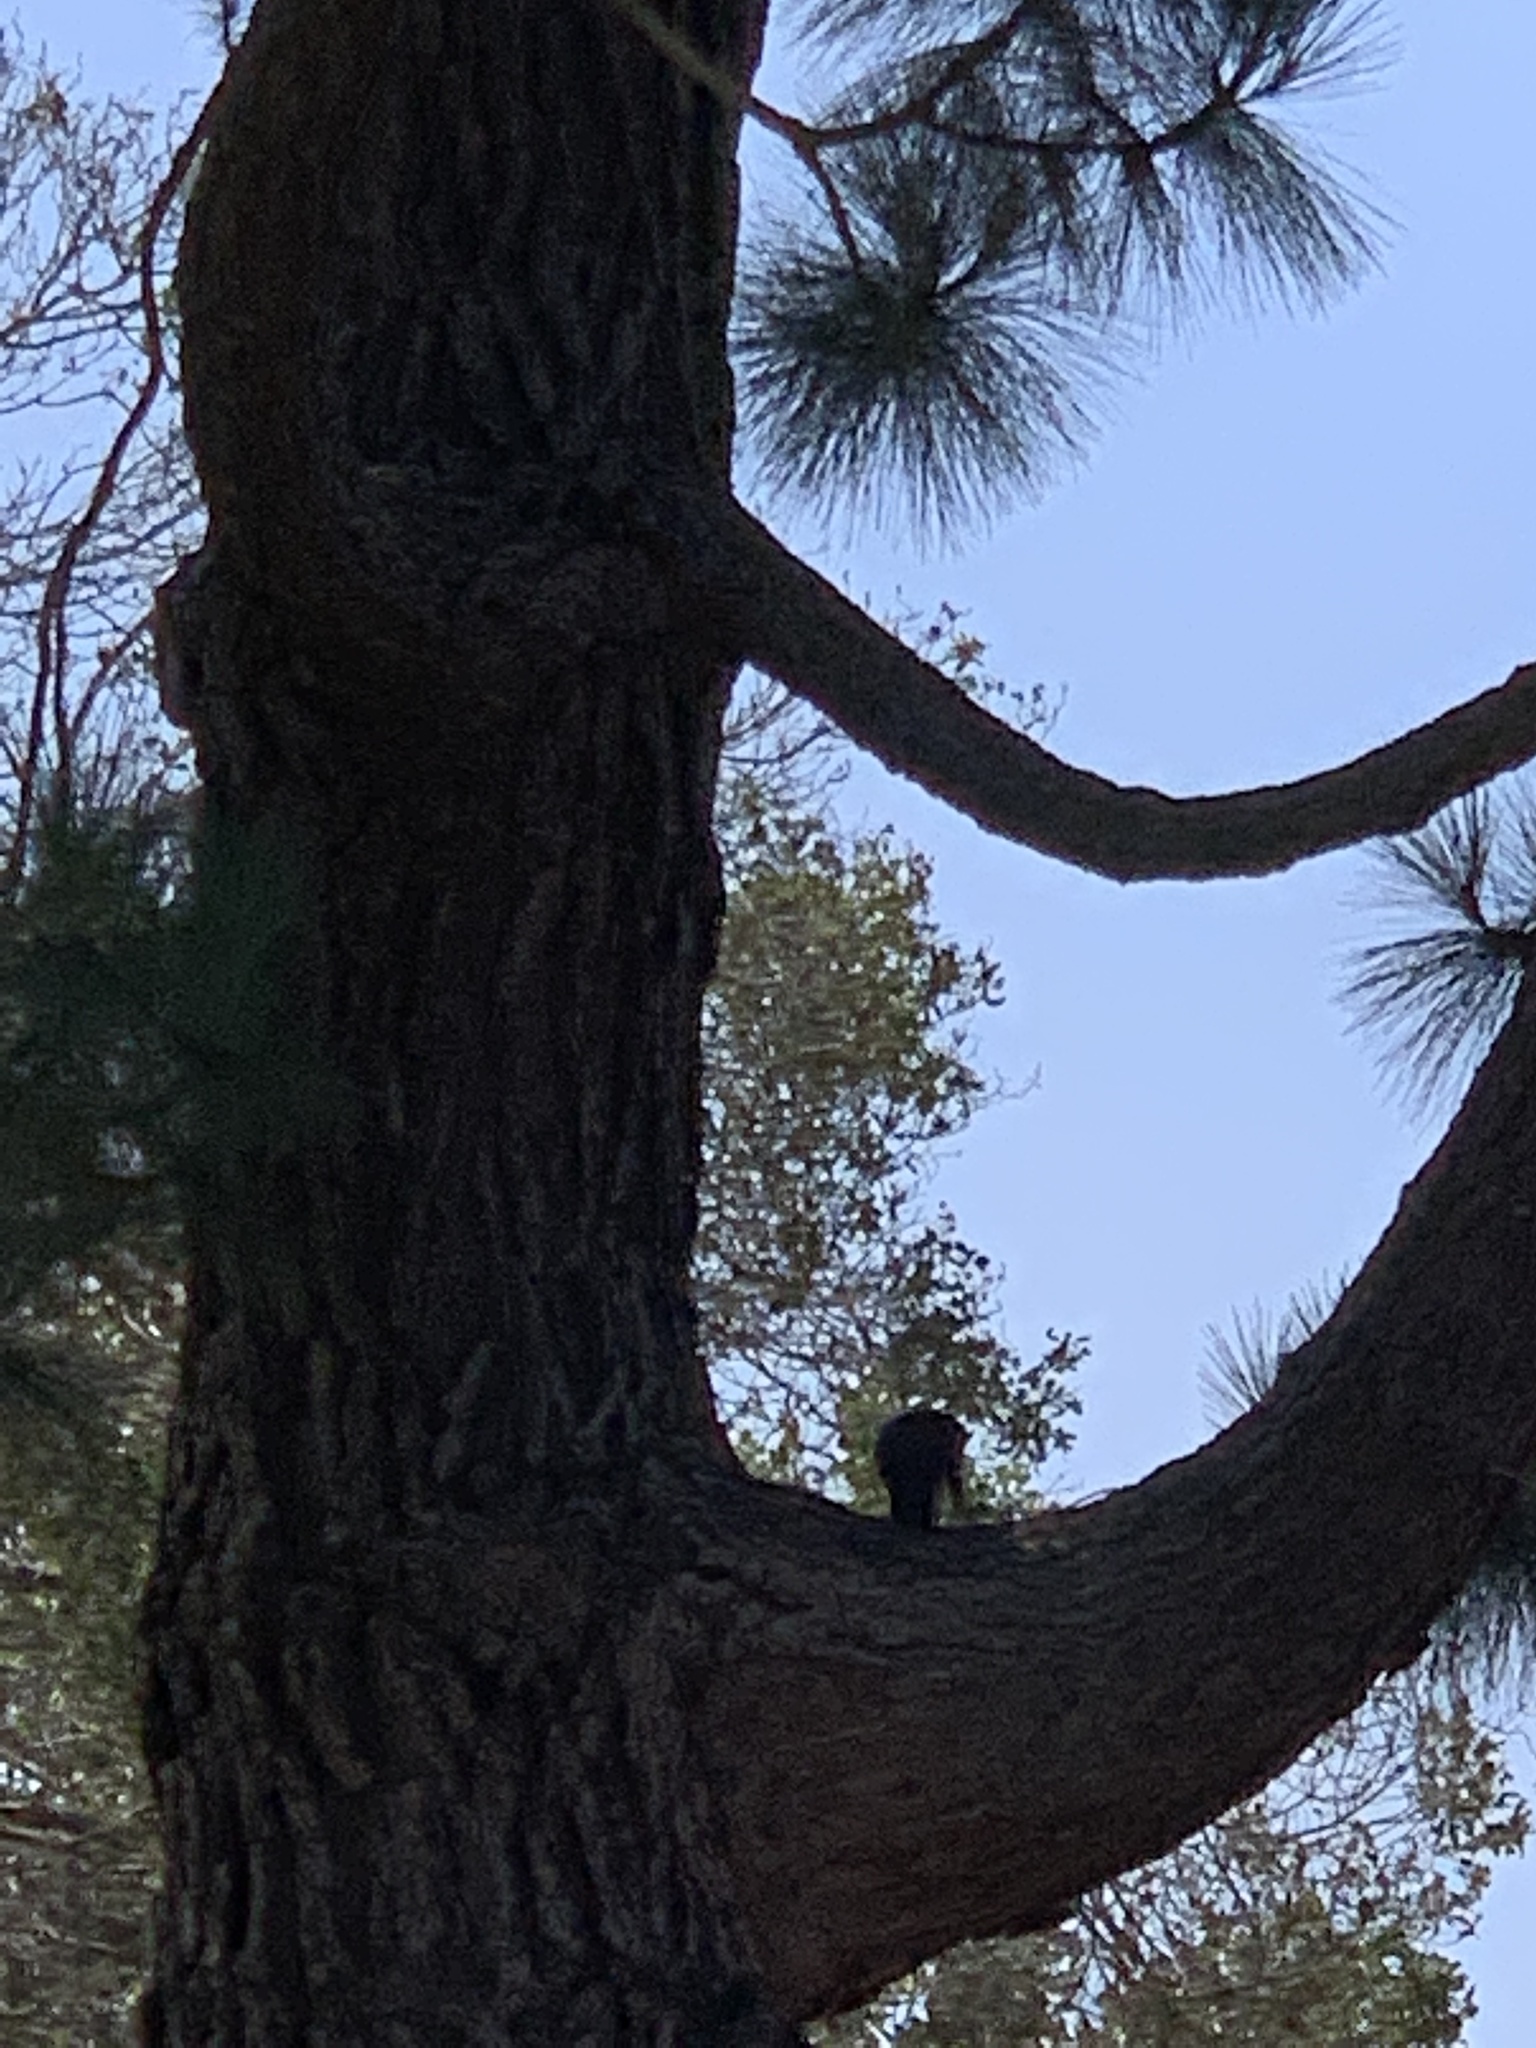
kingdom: Animalia
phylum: Chordata
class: Mammalia
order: Rodentia
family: Sciuridae
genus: Sciurus
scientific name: Sciurus carolinensis
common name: Eastern gray squirrel
